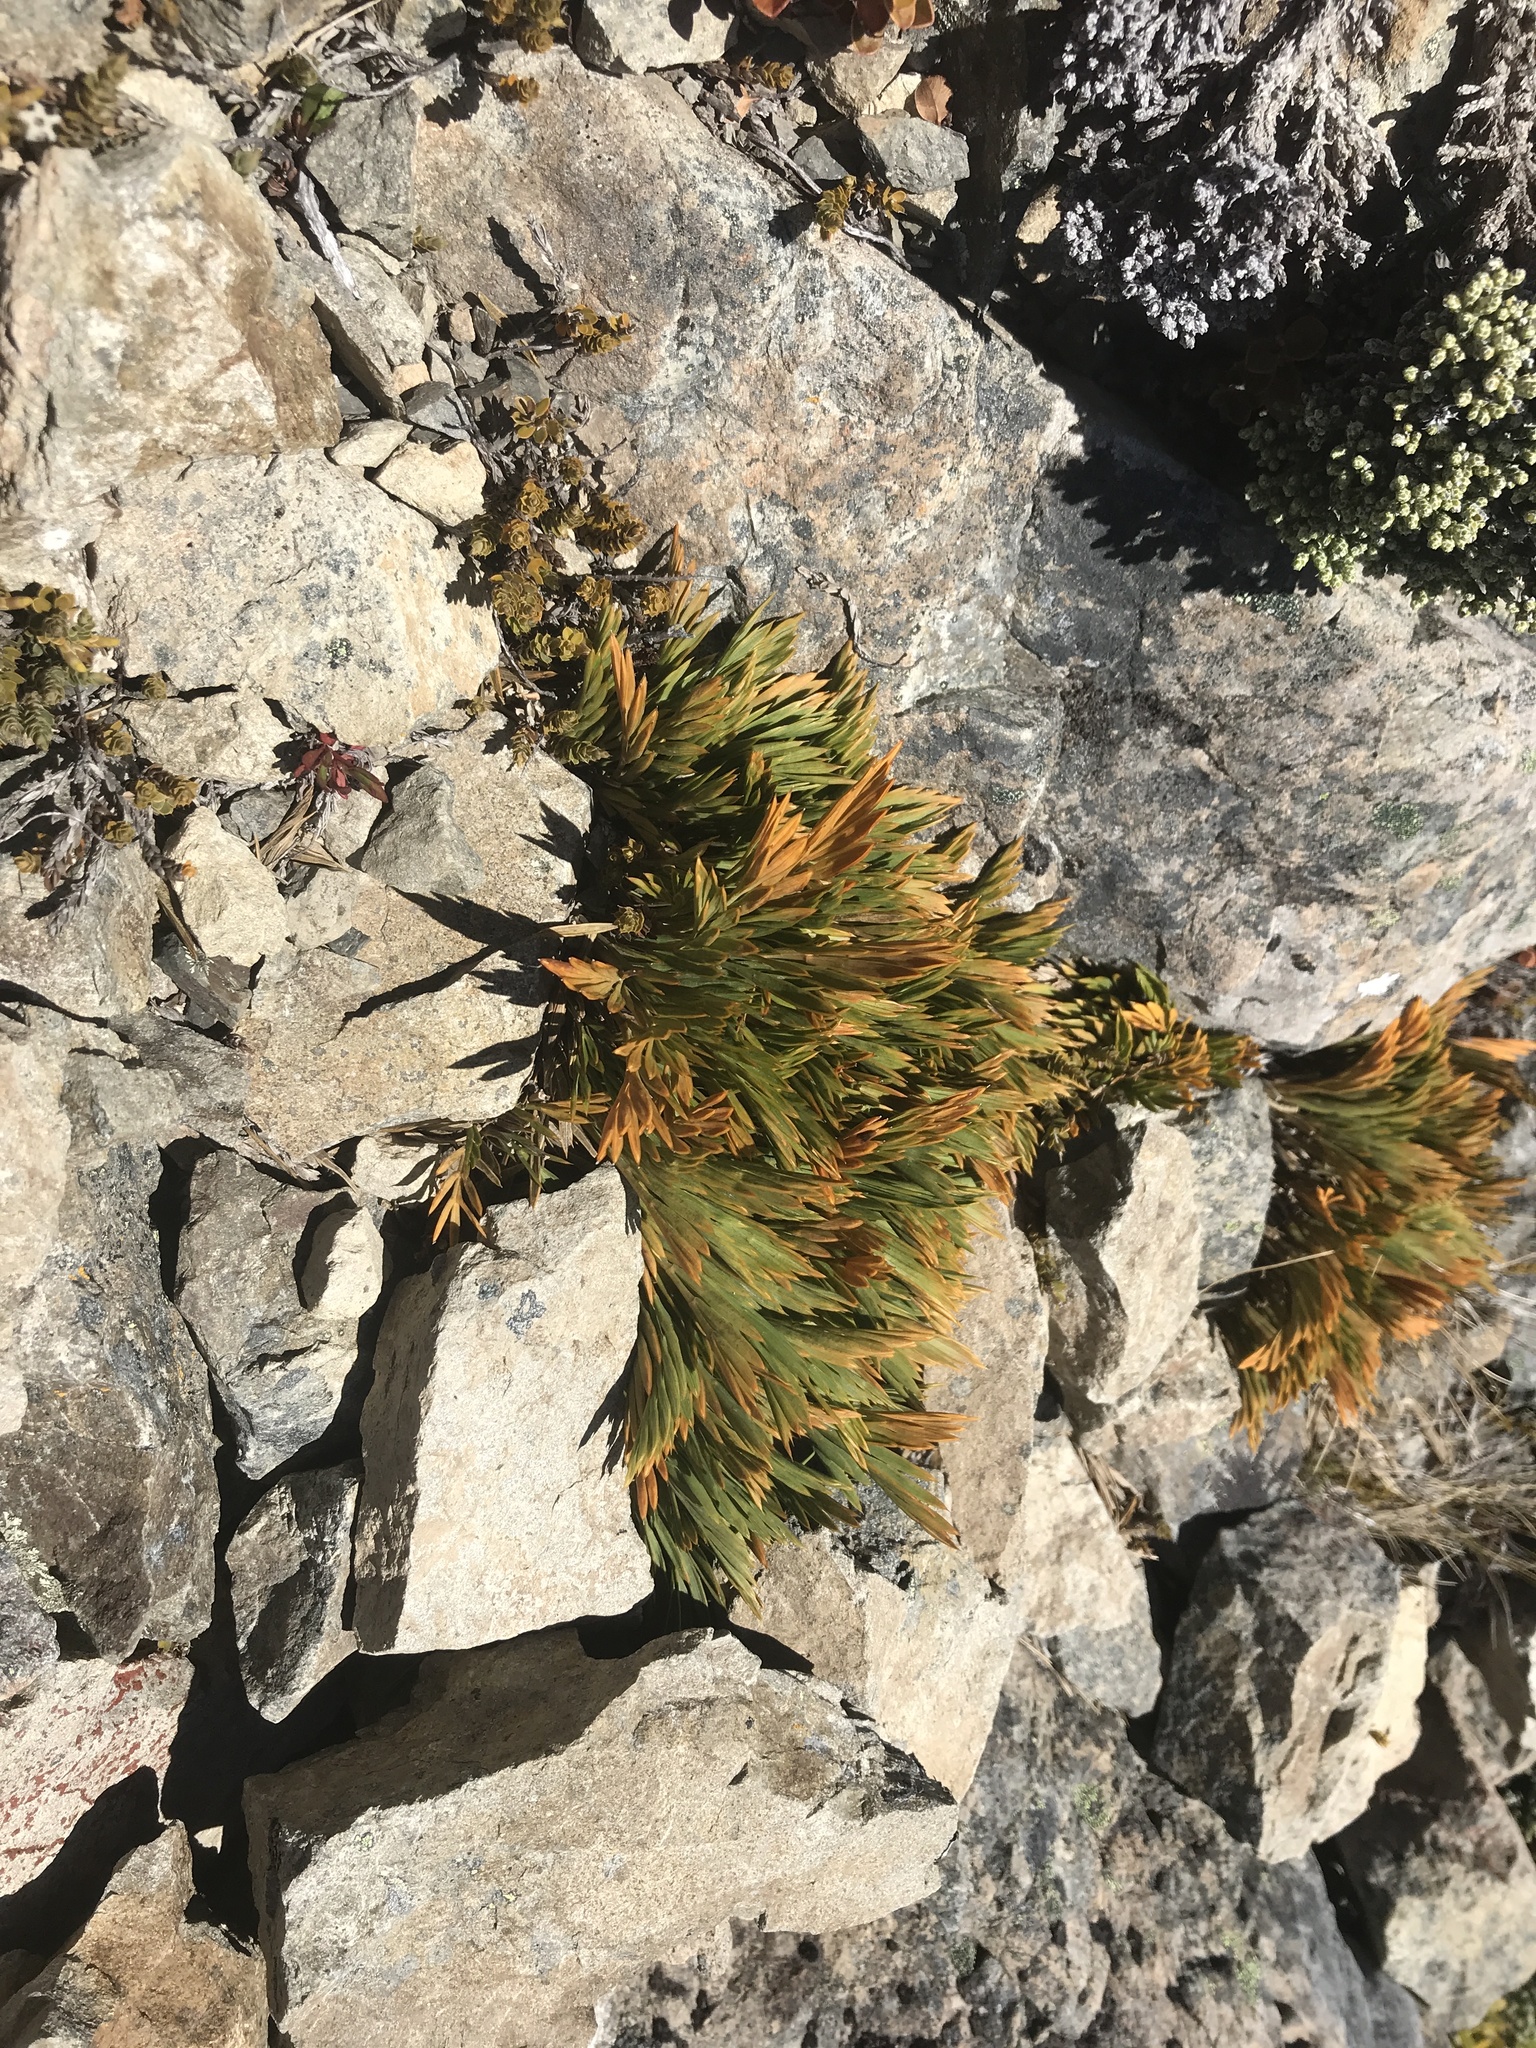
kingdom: Plantae
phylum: Tracheophyta
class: Magnoliopsida
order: Apiales
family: Apiaceae
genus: Aciphylla
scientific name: Aciphylla monroi
